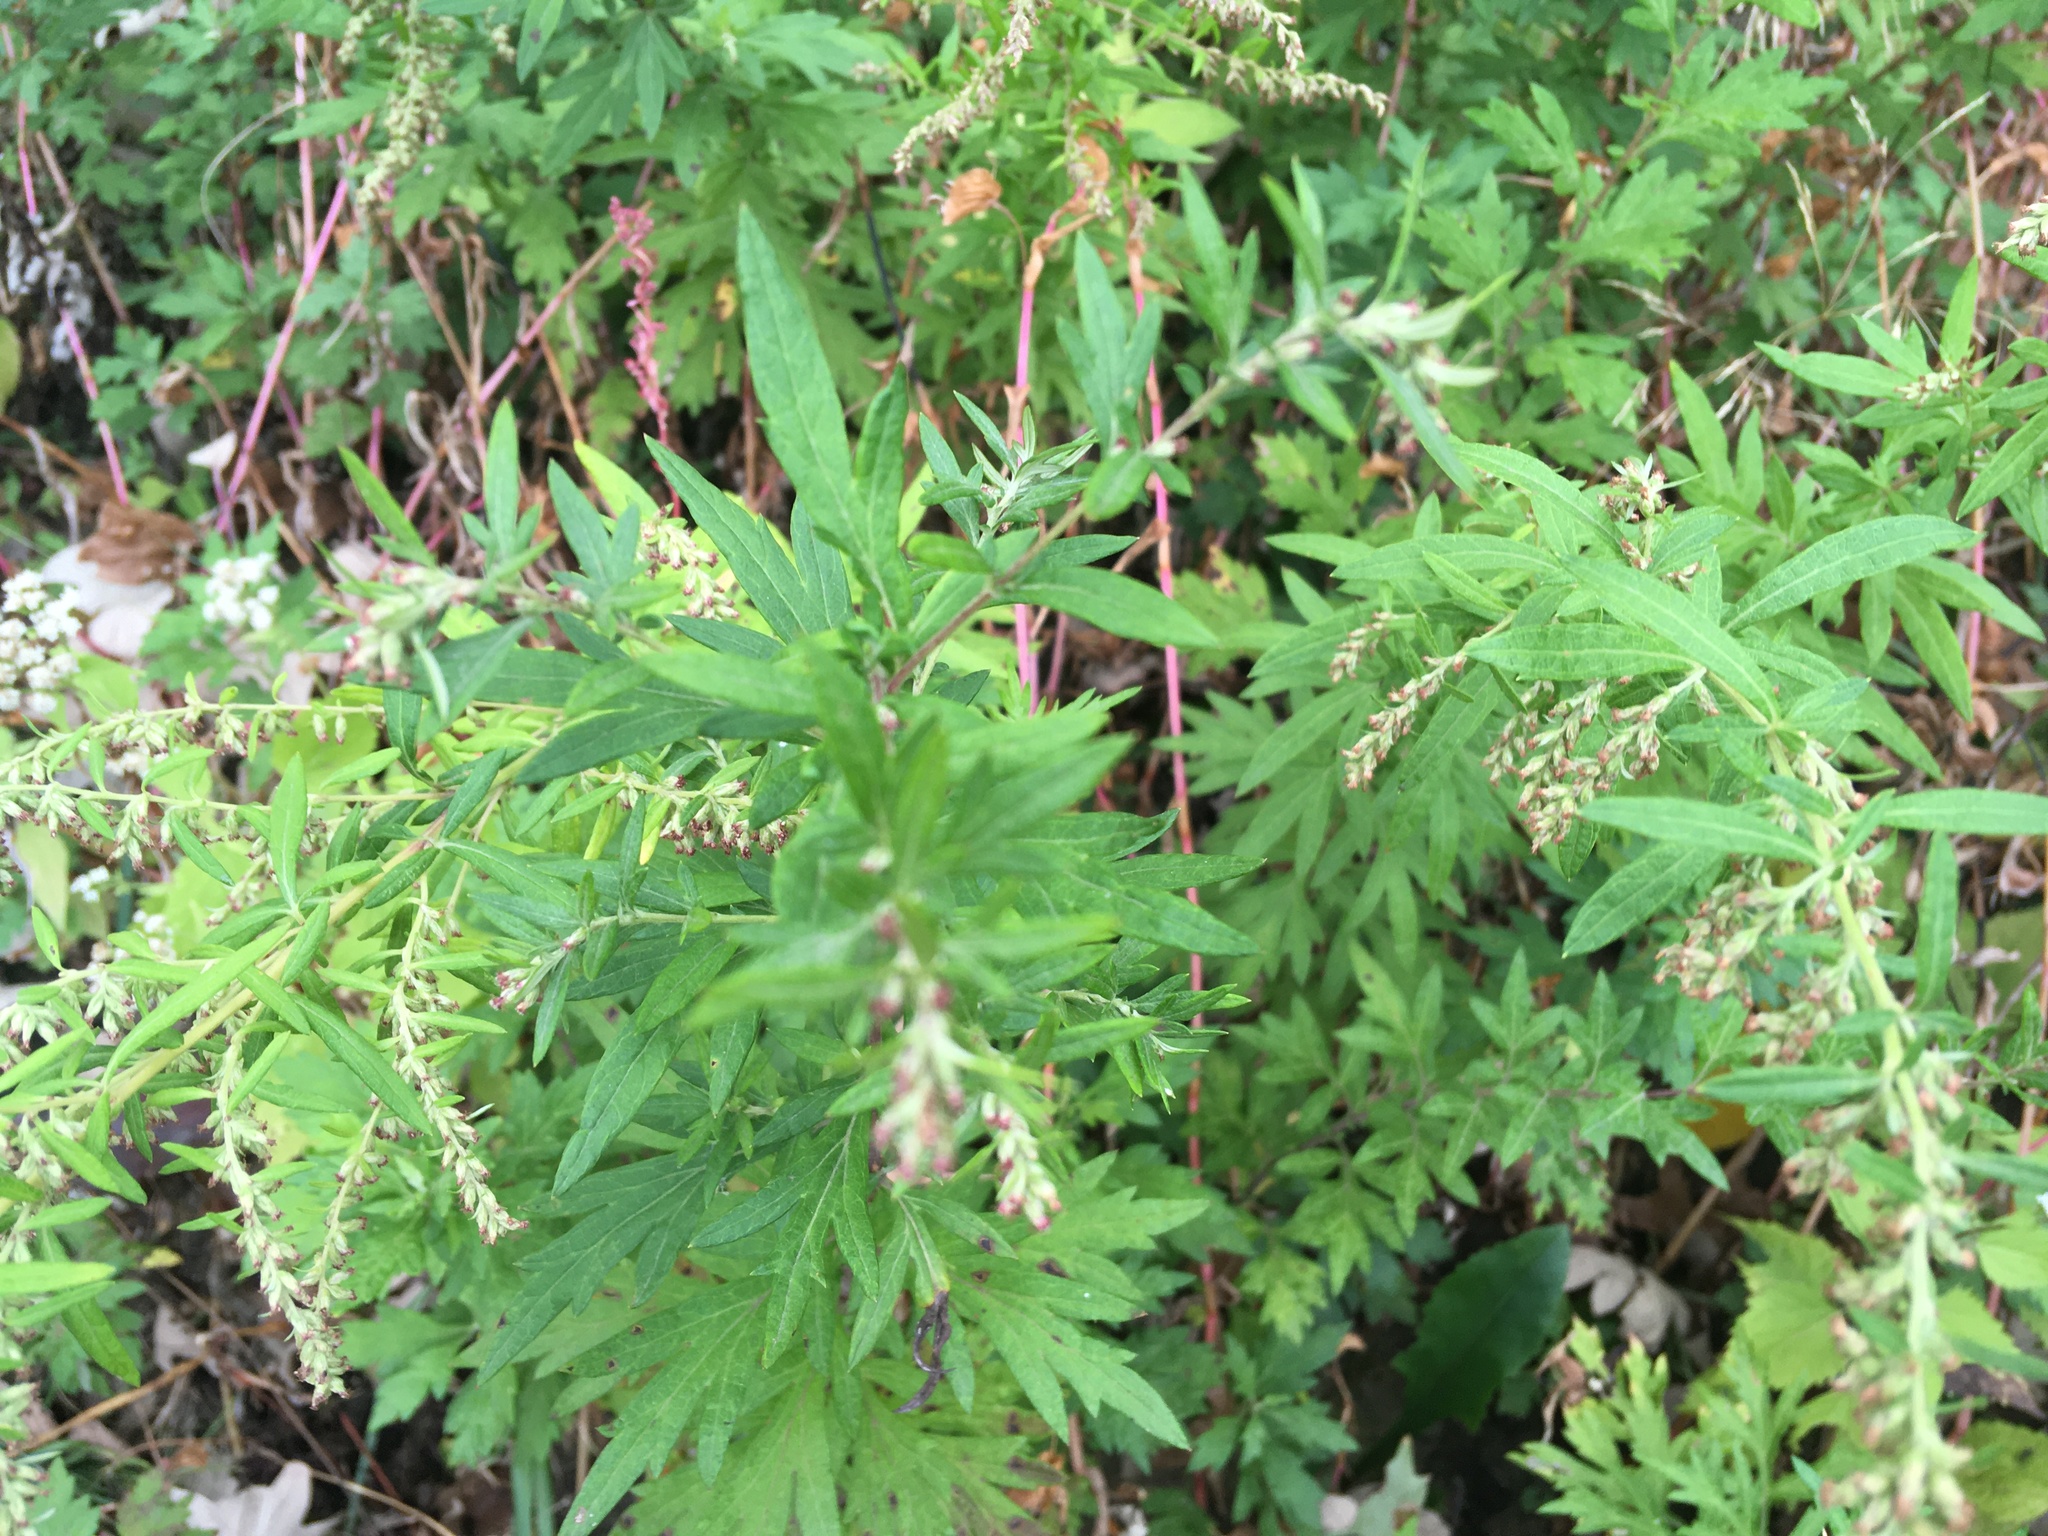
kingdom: Plantae
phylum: Tracheophyta
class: Magnoliopsida
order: Asterales
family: Asteraceae
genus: Artemisia
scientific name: Artemisia vulgaris
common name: Mugwort
